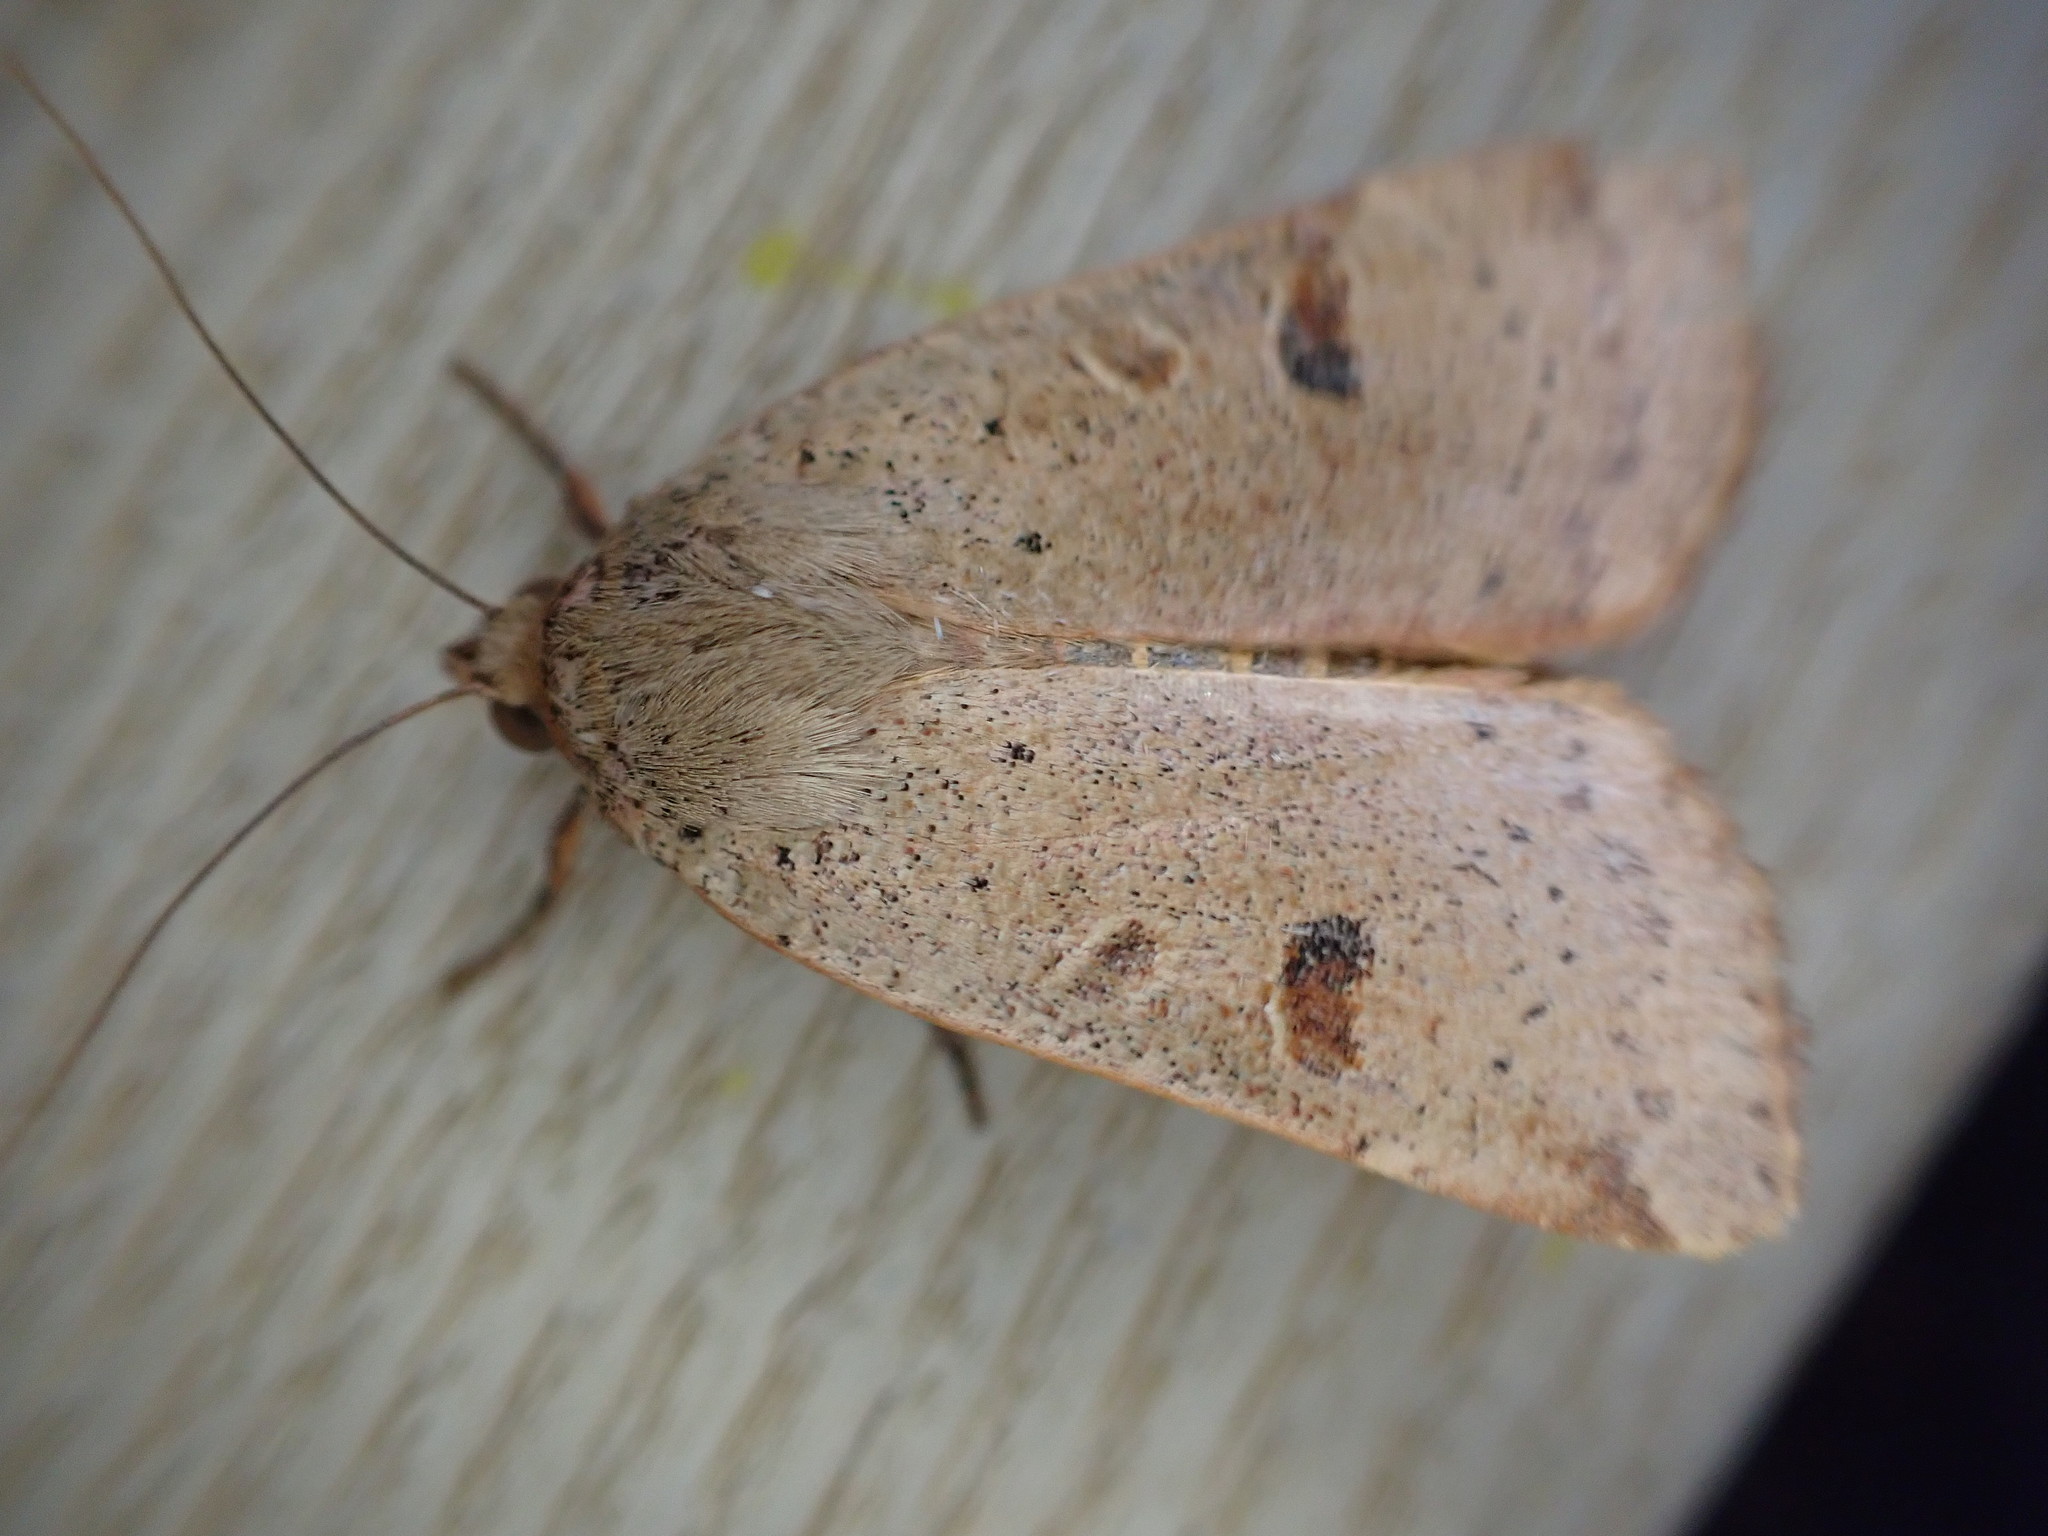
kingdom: Animalia
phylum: Arthropoda
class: Insecta
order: Lepidoptera
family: Noctuidae
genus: Noctua
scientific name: Noctua comes
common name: Lesser yellow underwing
